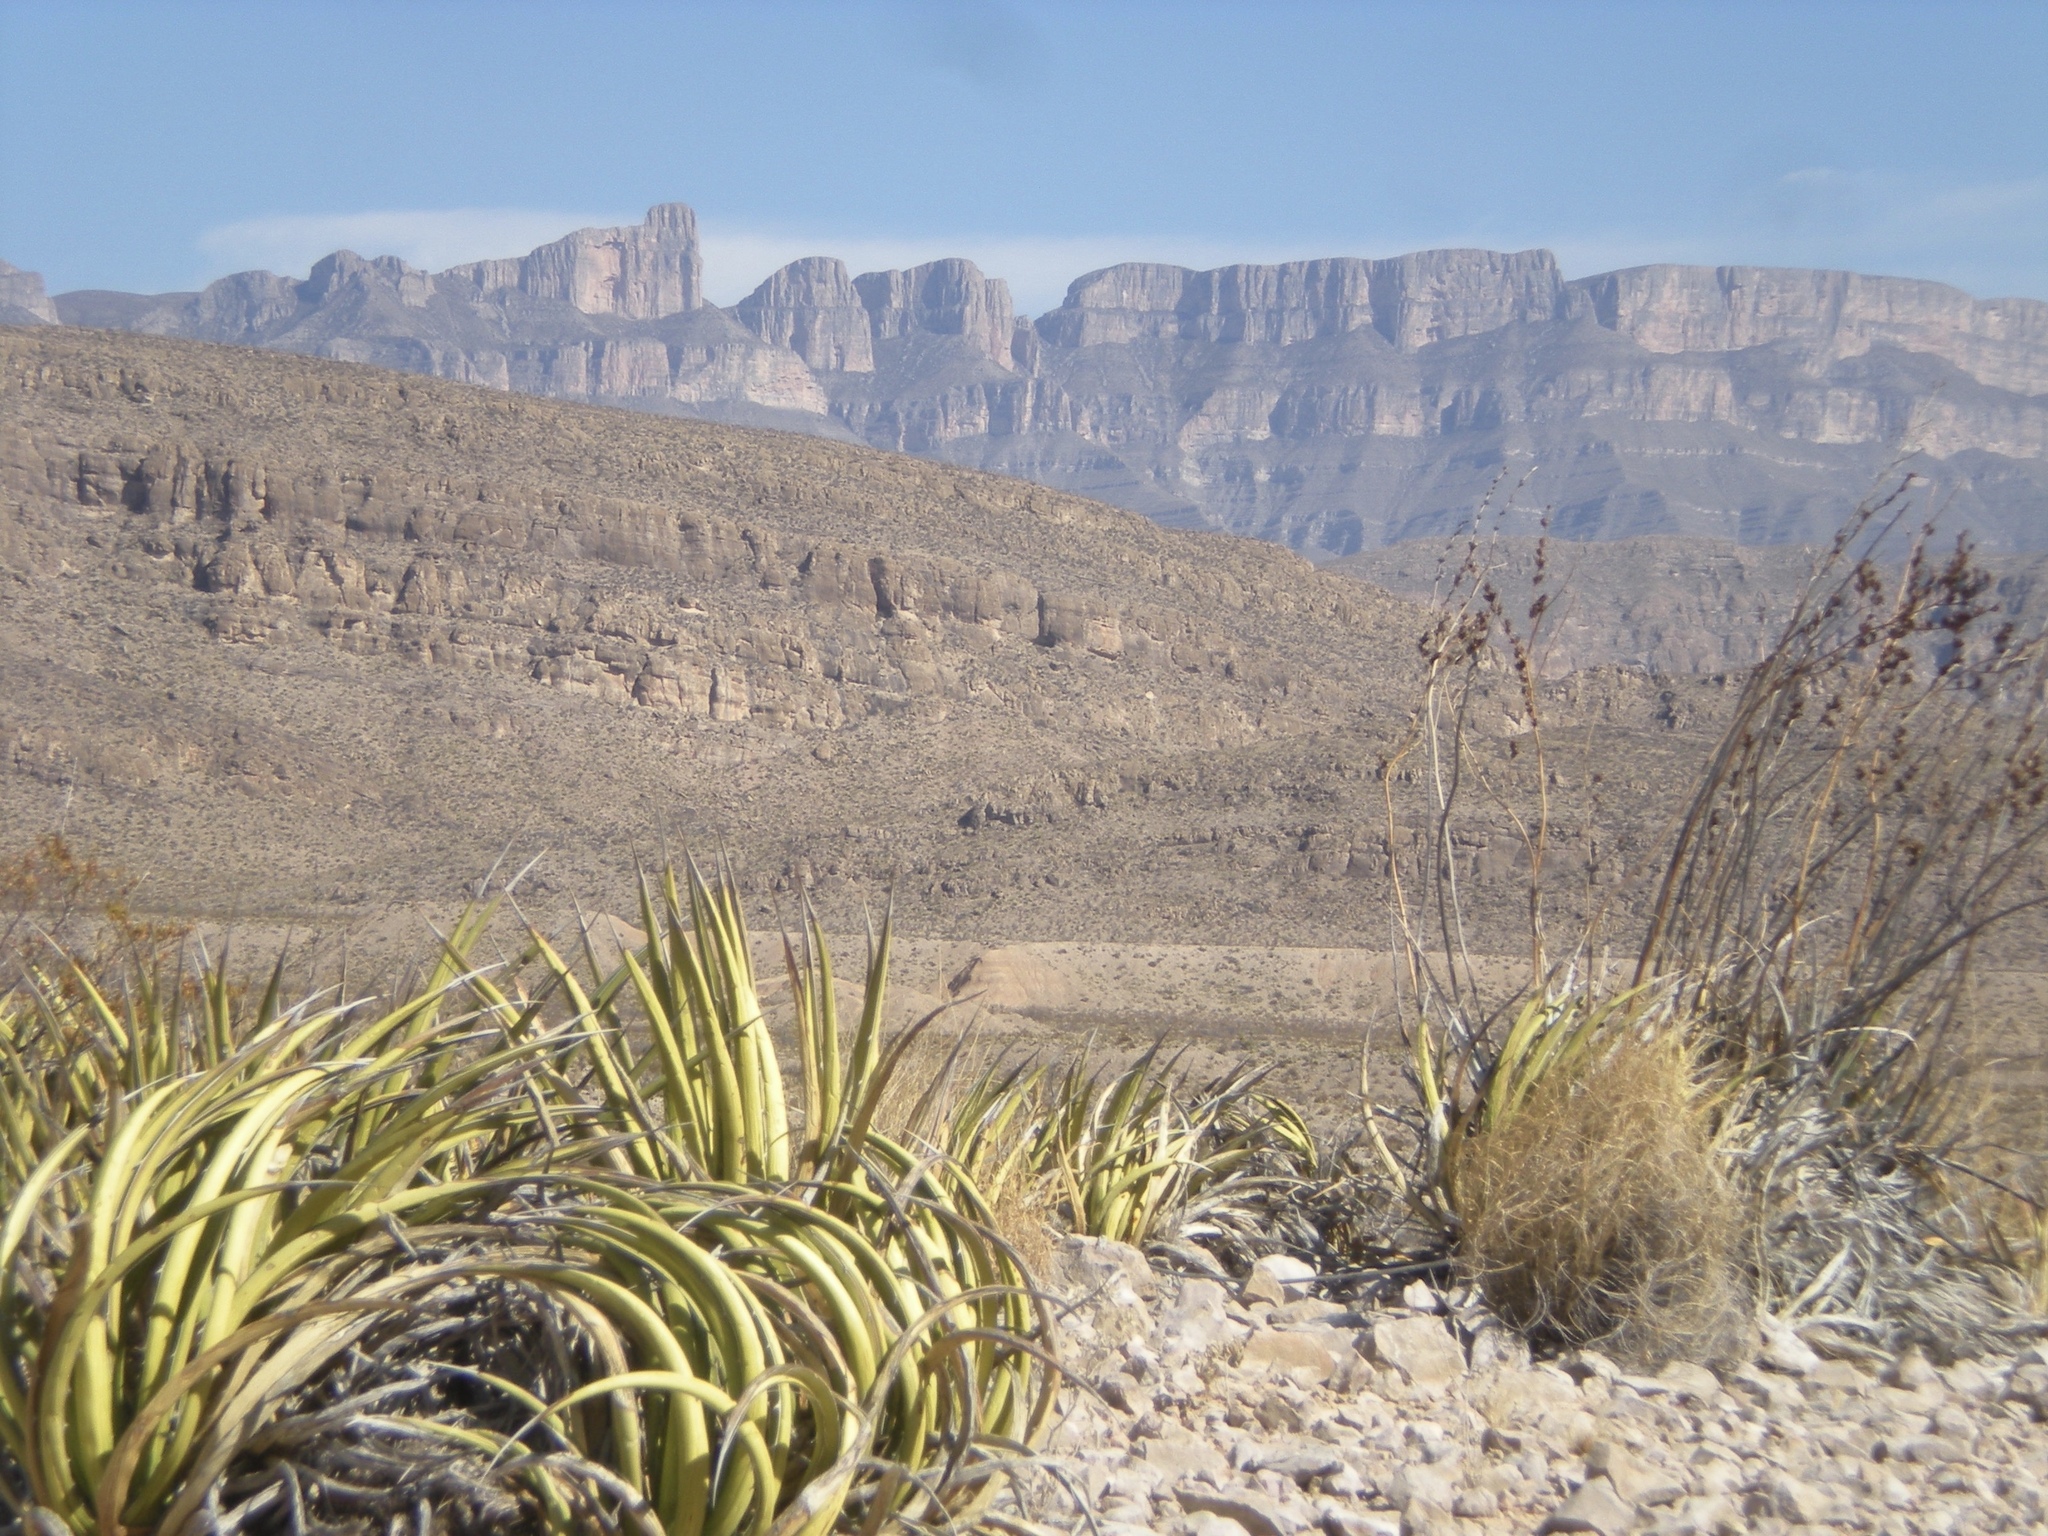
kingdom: Plantae
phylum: Tracheophyta
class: Liliopsida
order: Asparagales
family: Asparagaceae
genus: Agave
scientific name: Agave lechuguilla
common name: Lecheguilla agave
